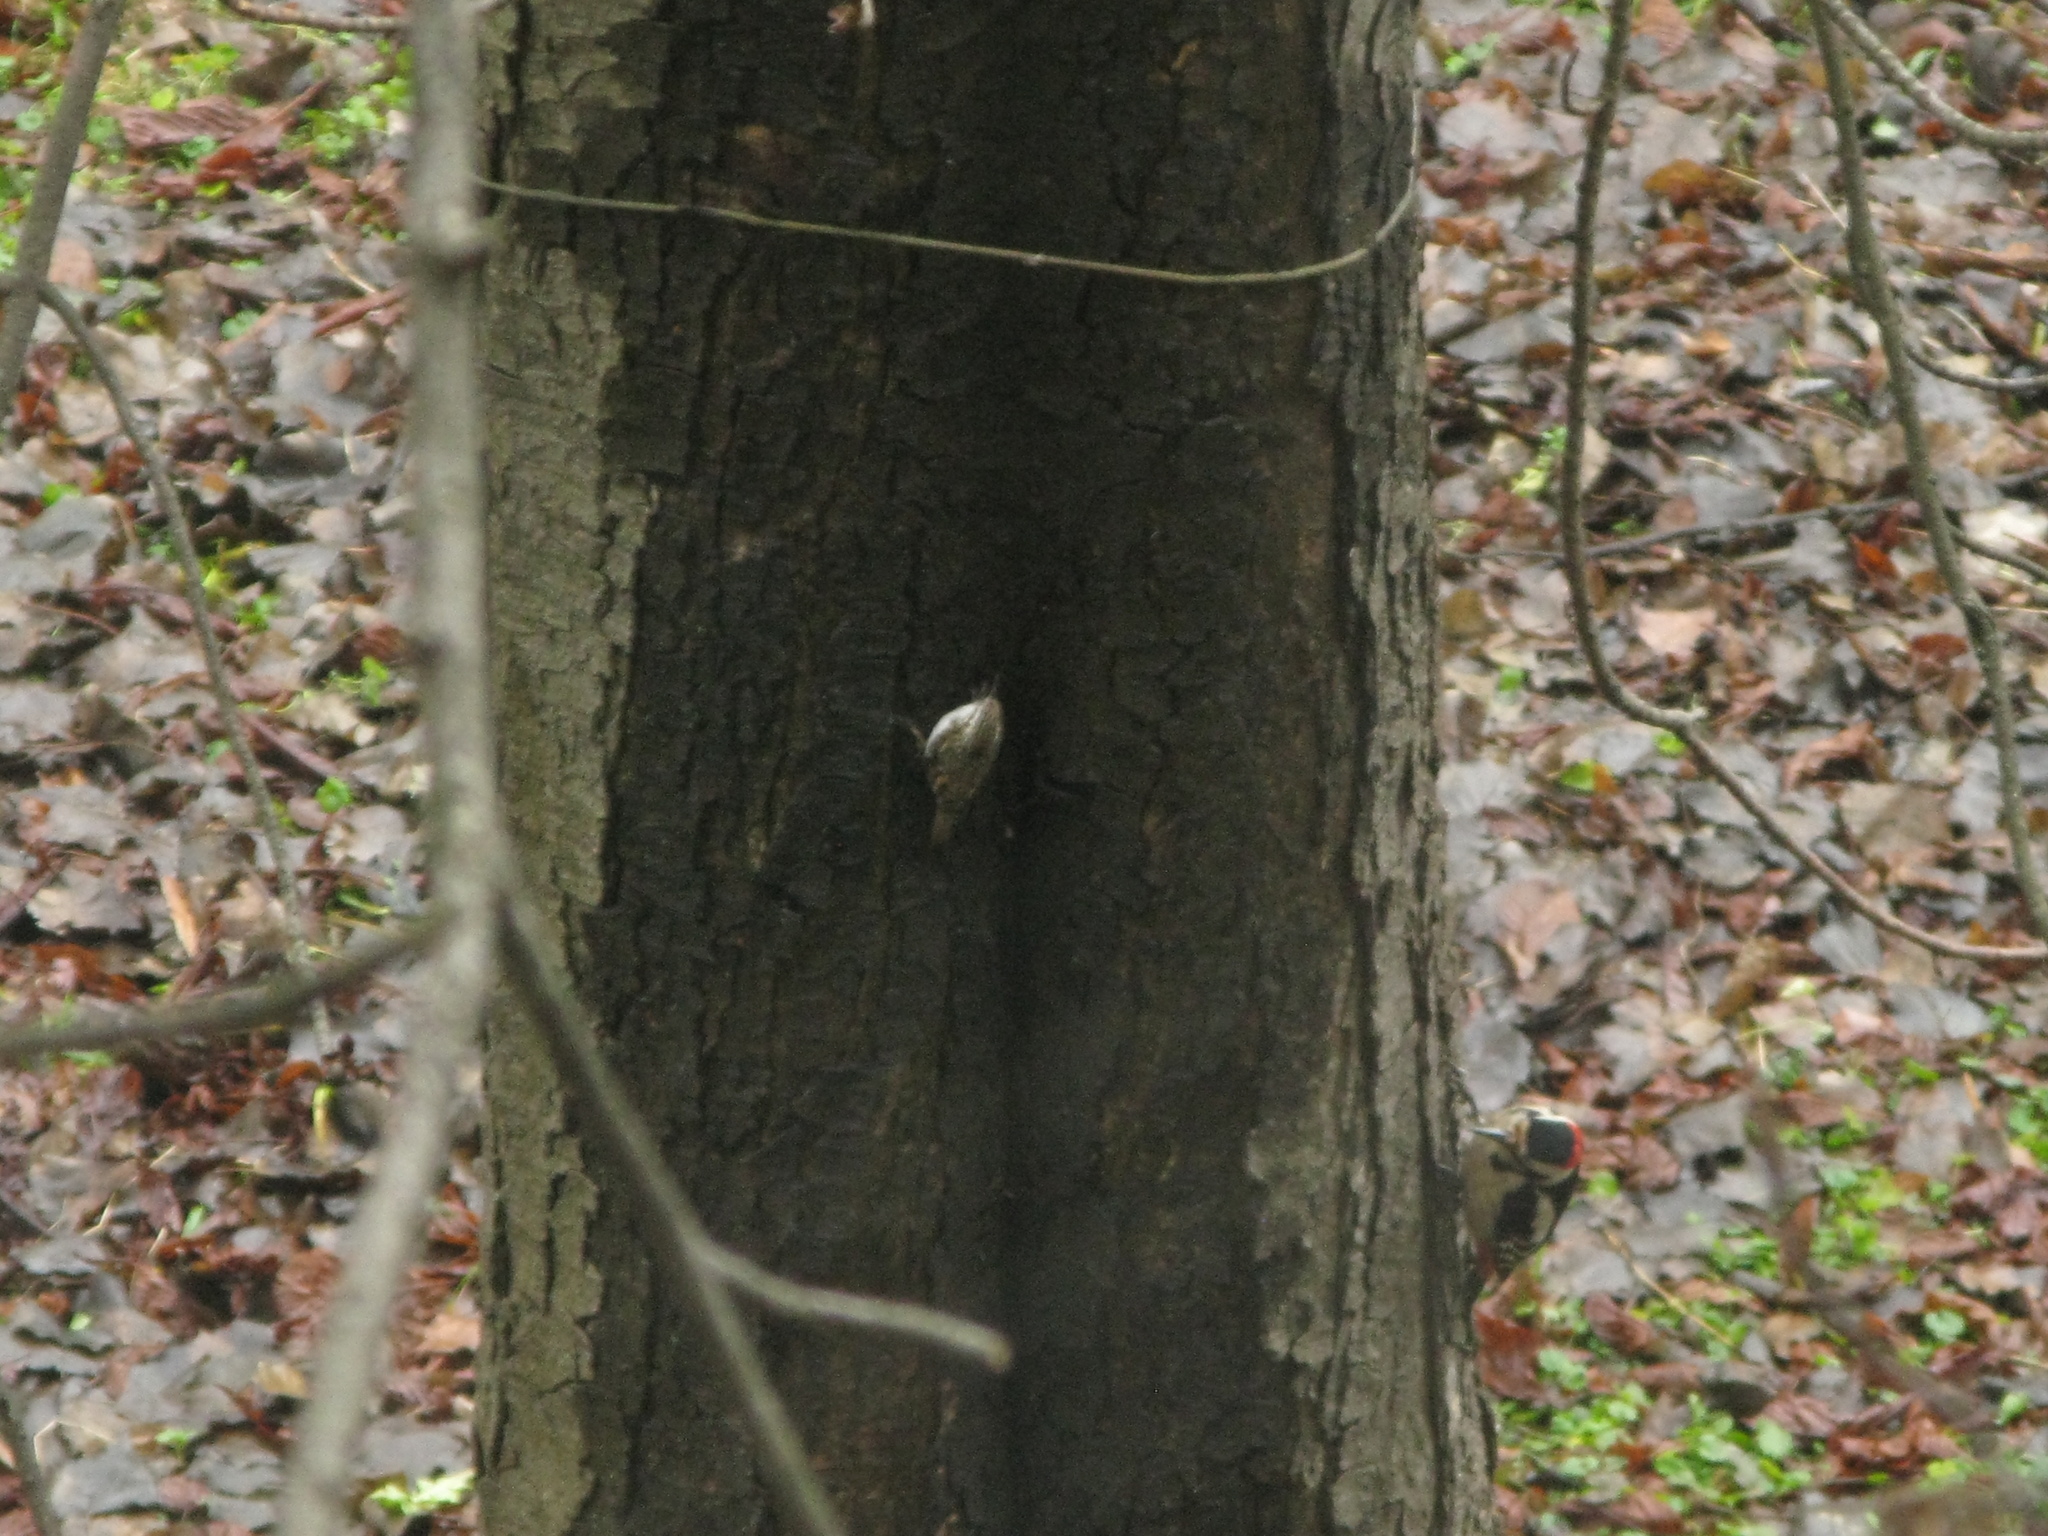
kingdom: Animalia
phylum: Chordata
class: Aves
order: Passeriformes
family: Certhiidae
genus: Certhia
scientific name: Certhia familiaris
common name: Eurasian treecreeper
